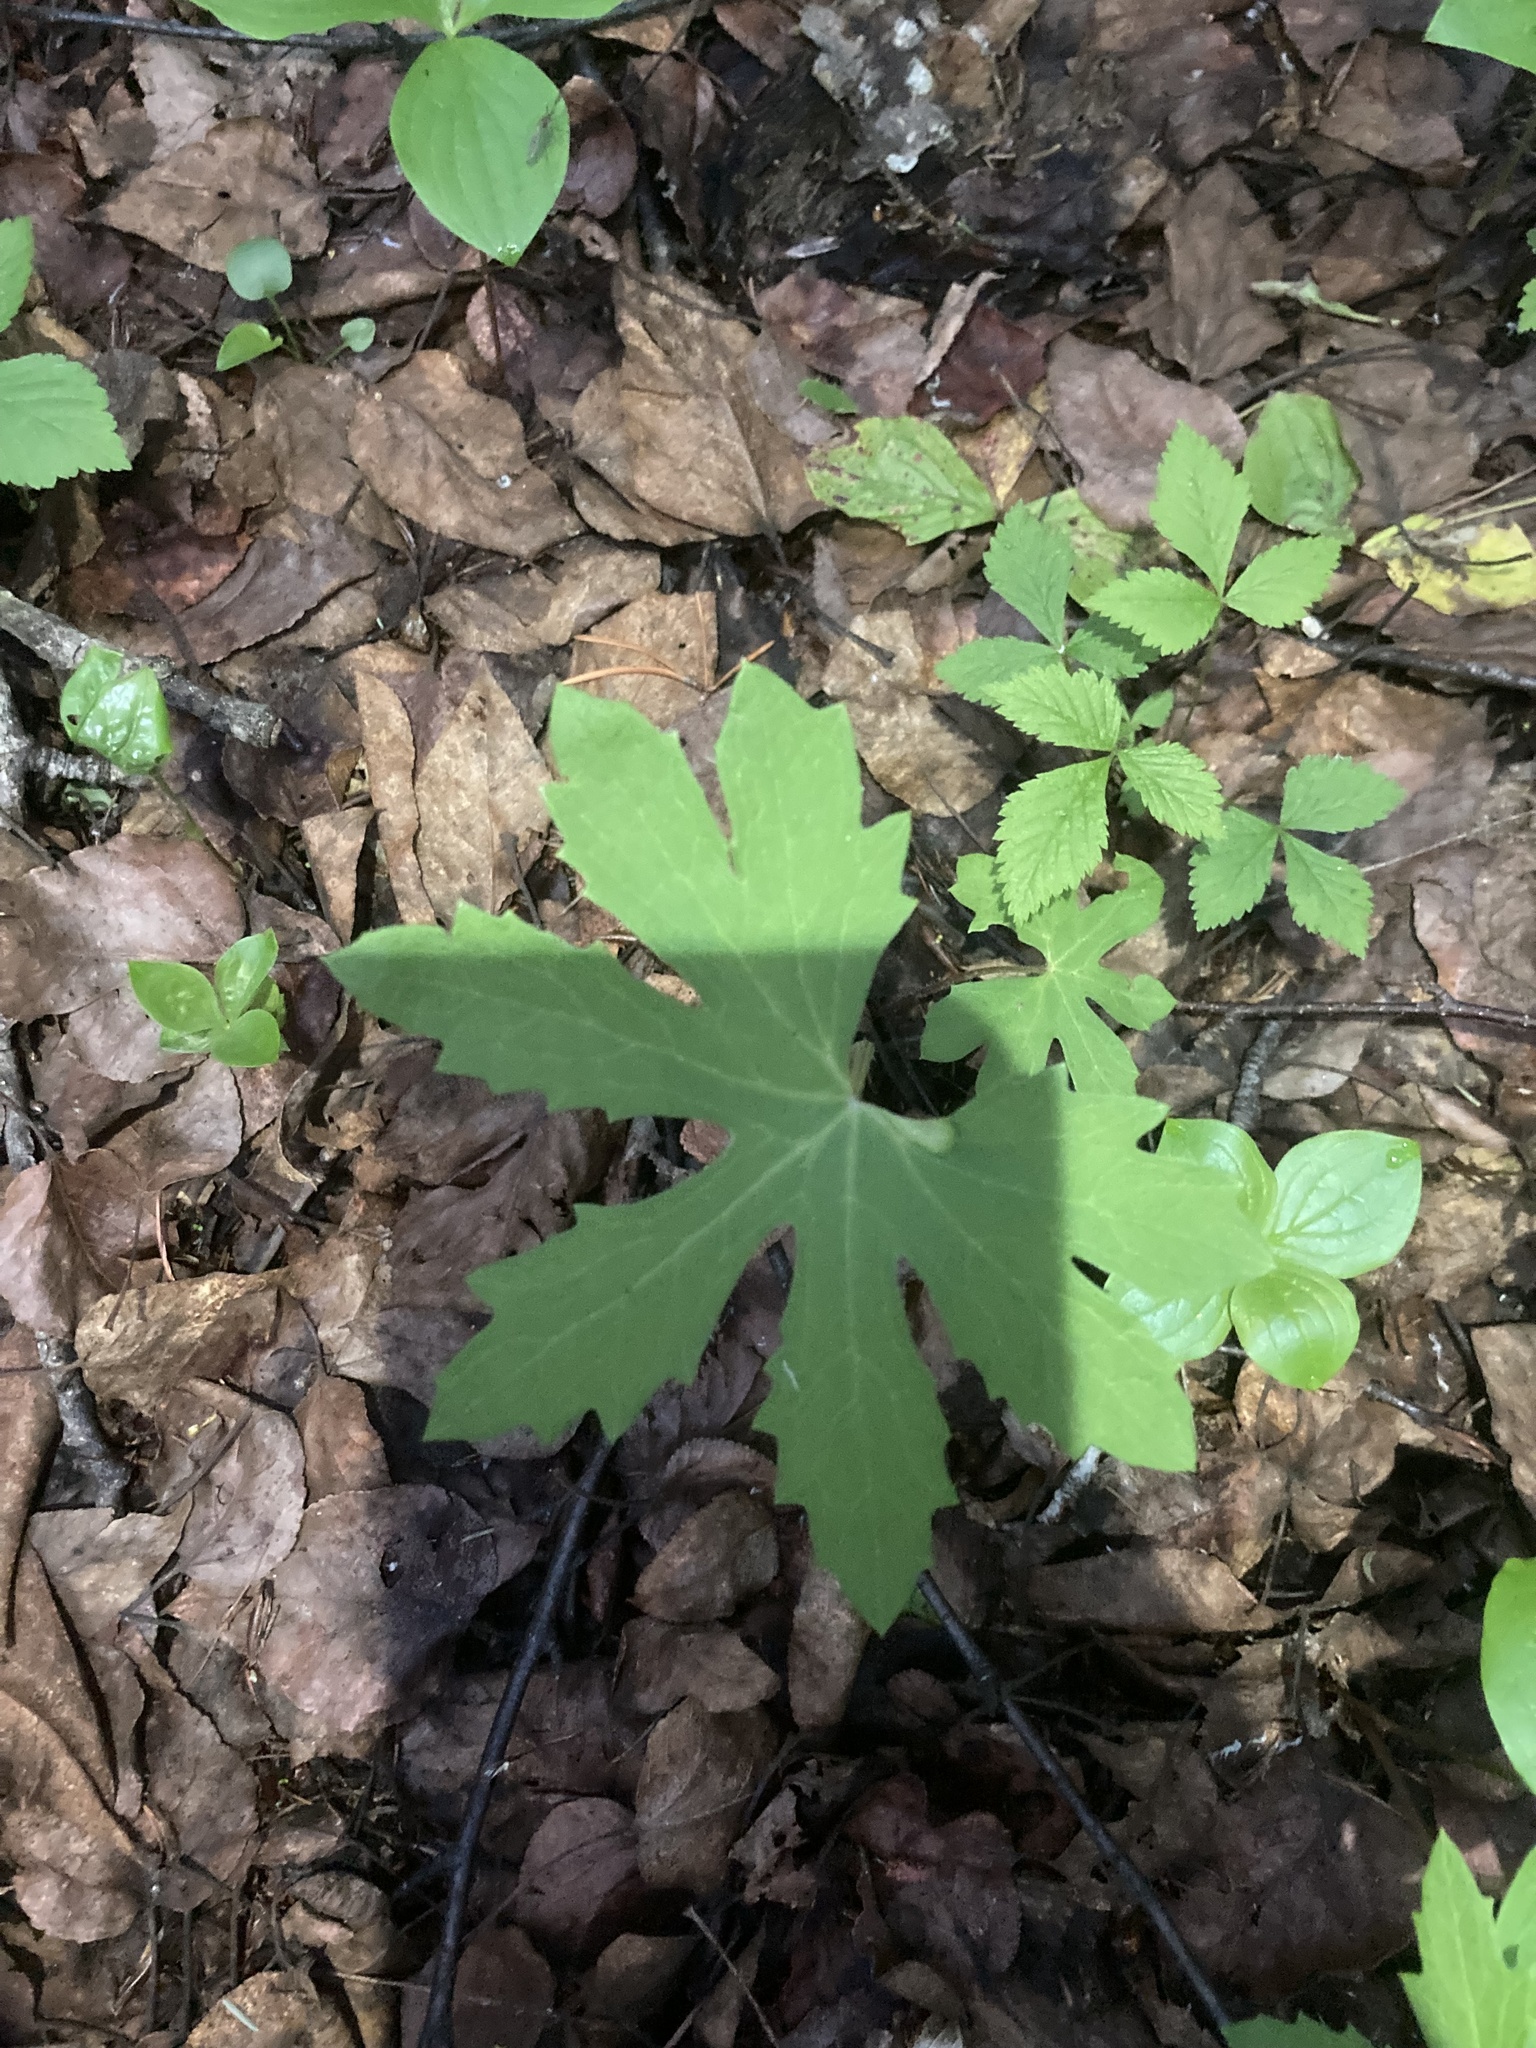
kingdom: Plantae
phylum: Tracheophyta
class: Magnoliopsida
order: Asterales
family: Asteraceae
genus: Petasites
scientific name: Petasites frigidus
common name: Arctic butterbur
